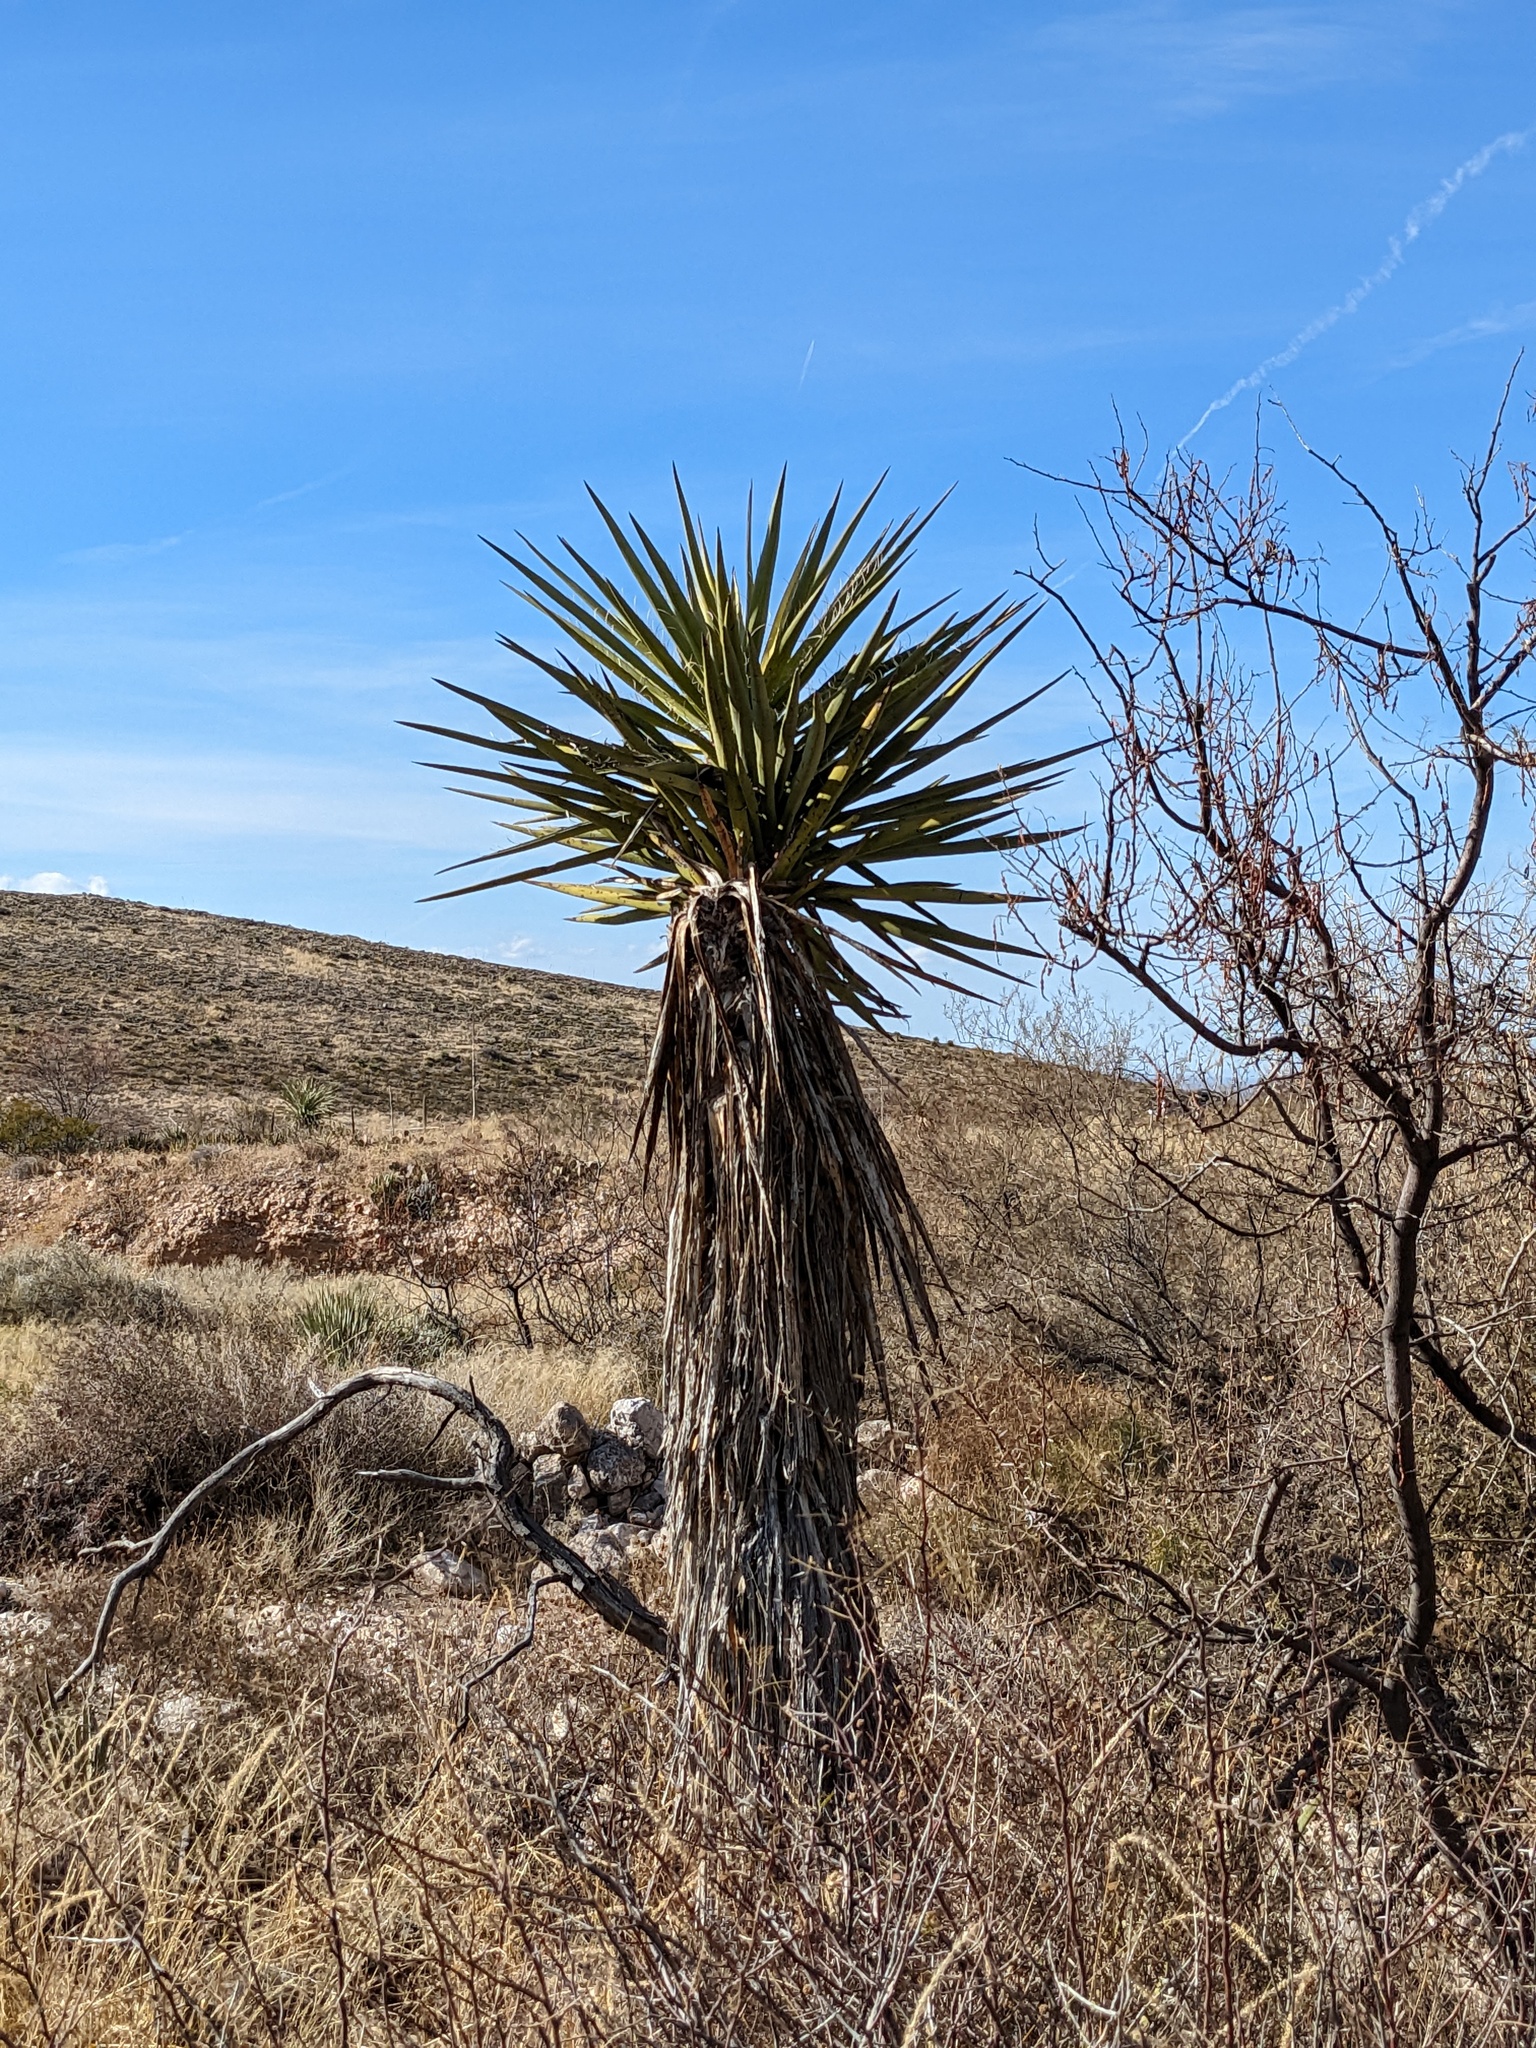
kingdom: Plantae
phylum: Tracheophyta
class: Liliopsida
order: Asparagales
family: Asparagaceae
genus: Yucca
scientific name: Yucca treculiana
